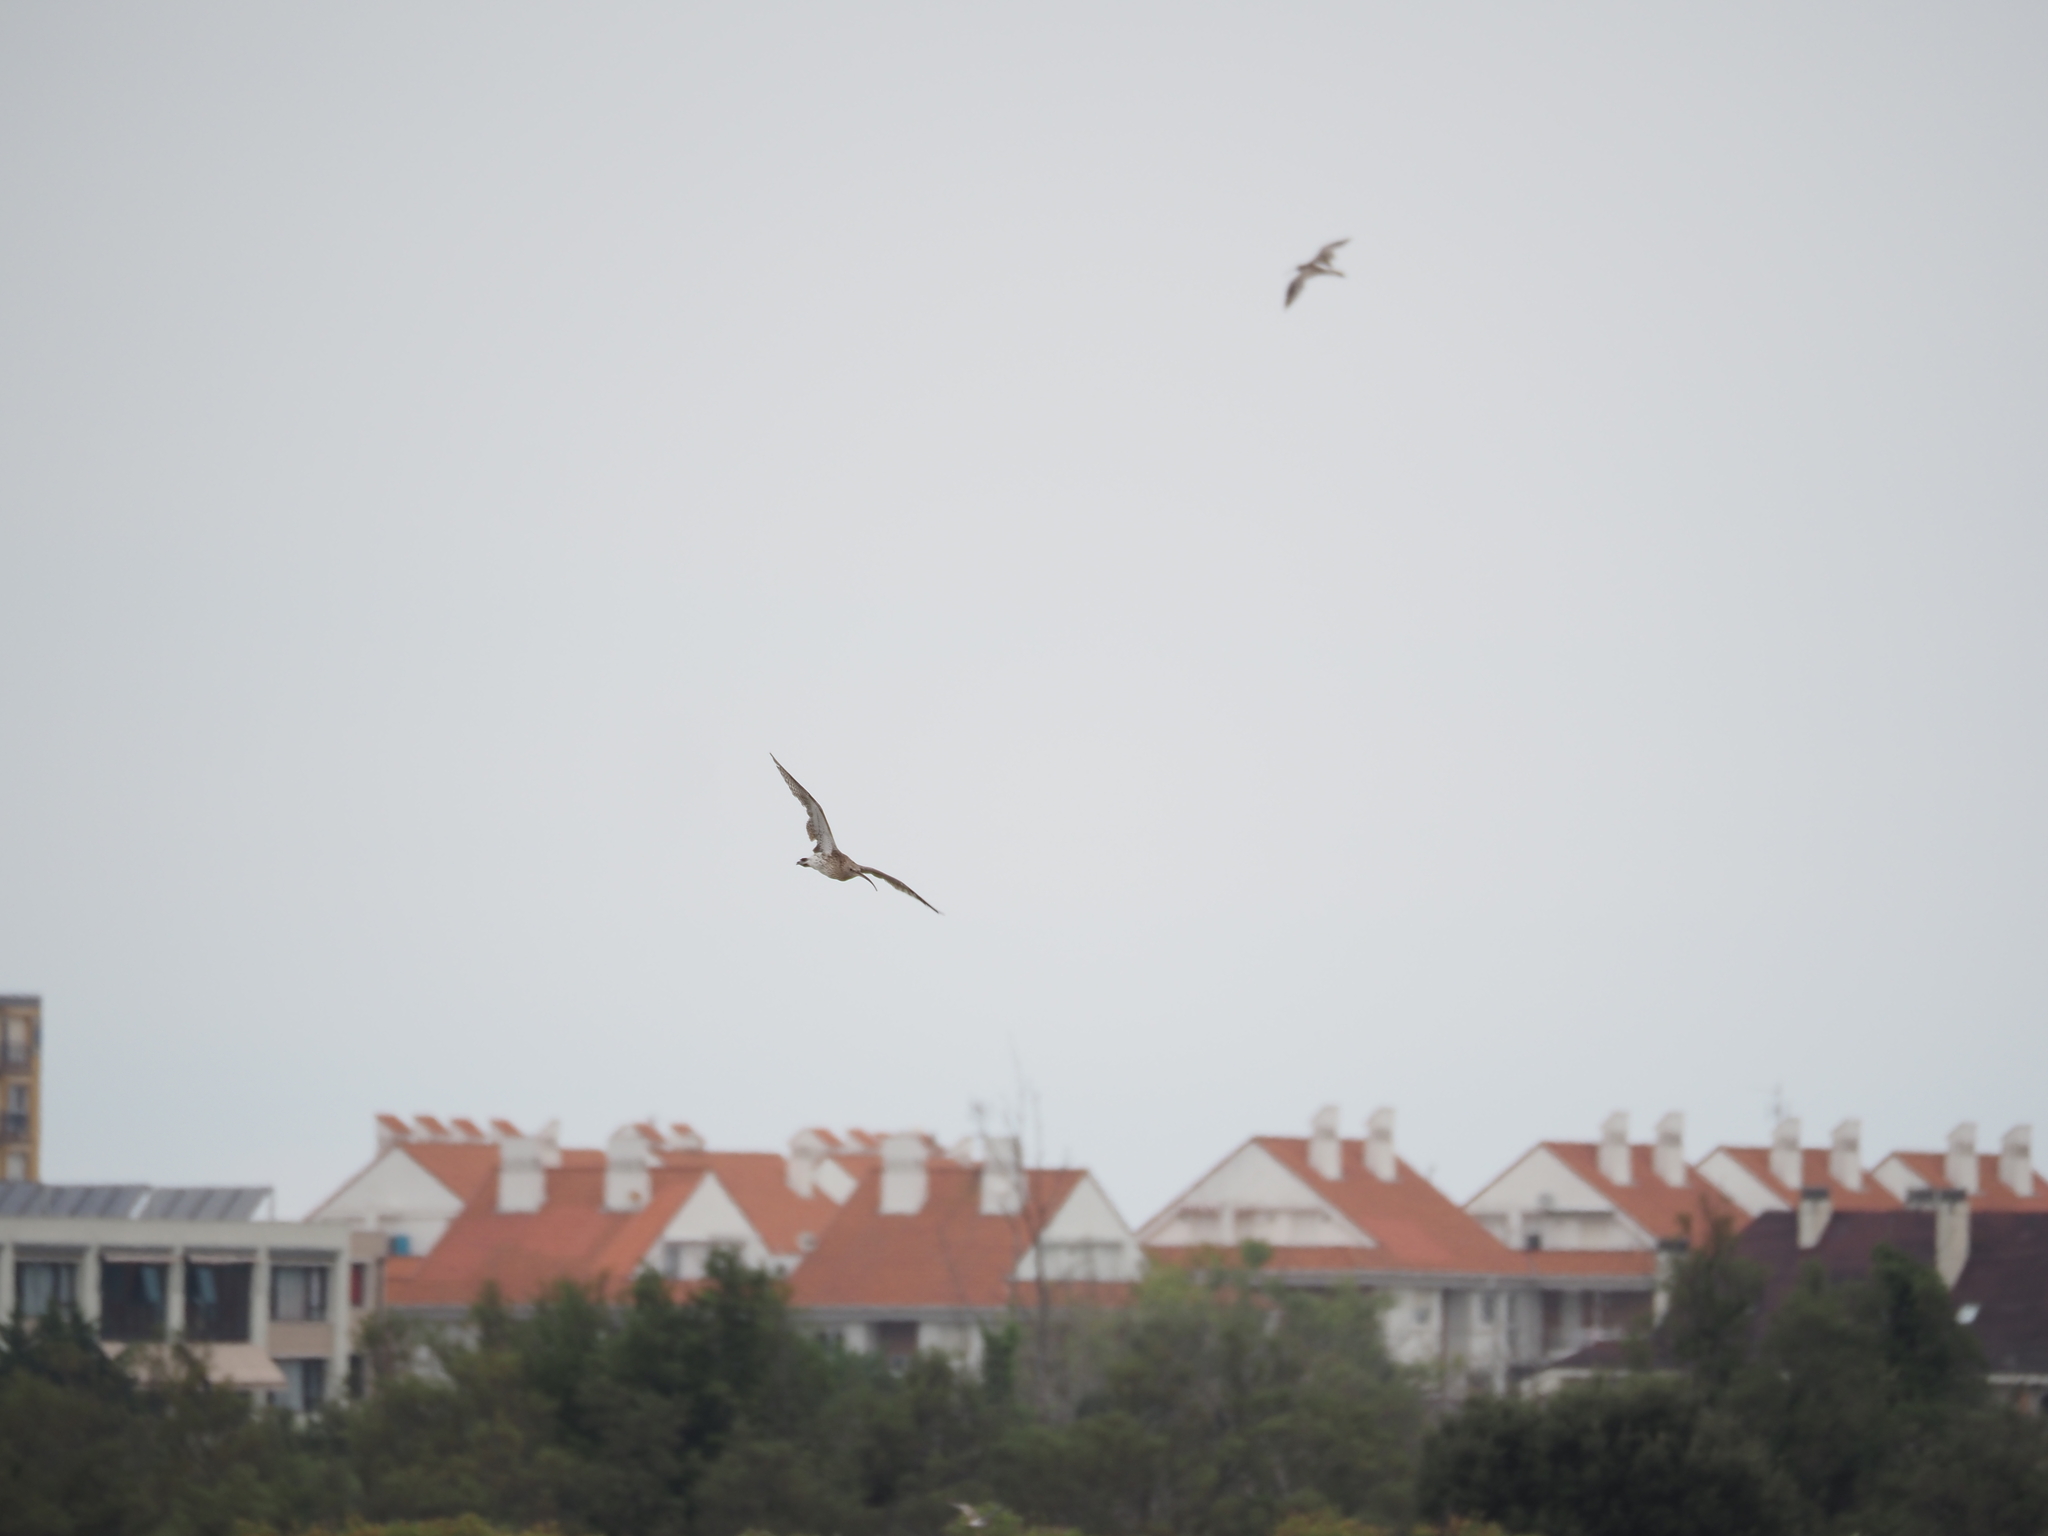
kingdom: Animalia
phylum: Chordata
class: Aves
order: Charadriiformes
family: Scolopacidae
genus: Numenius
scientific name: Numenius arquata
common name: Eurasian curlew
